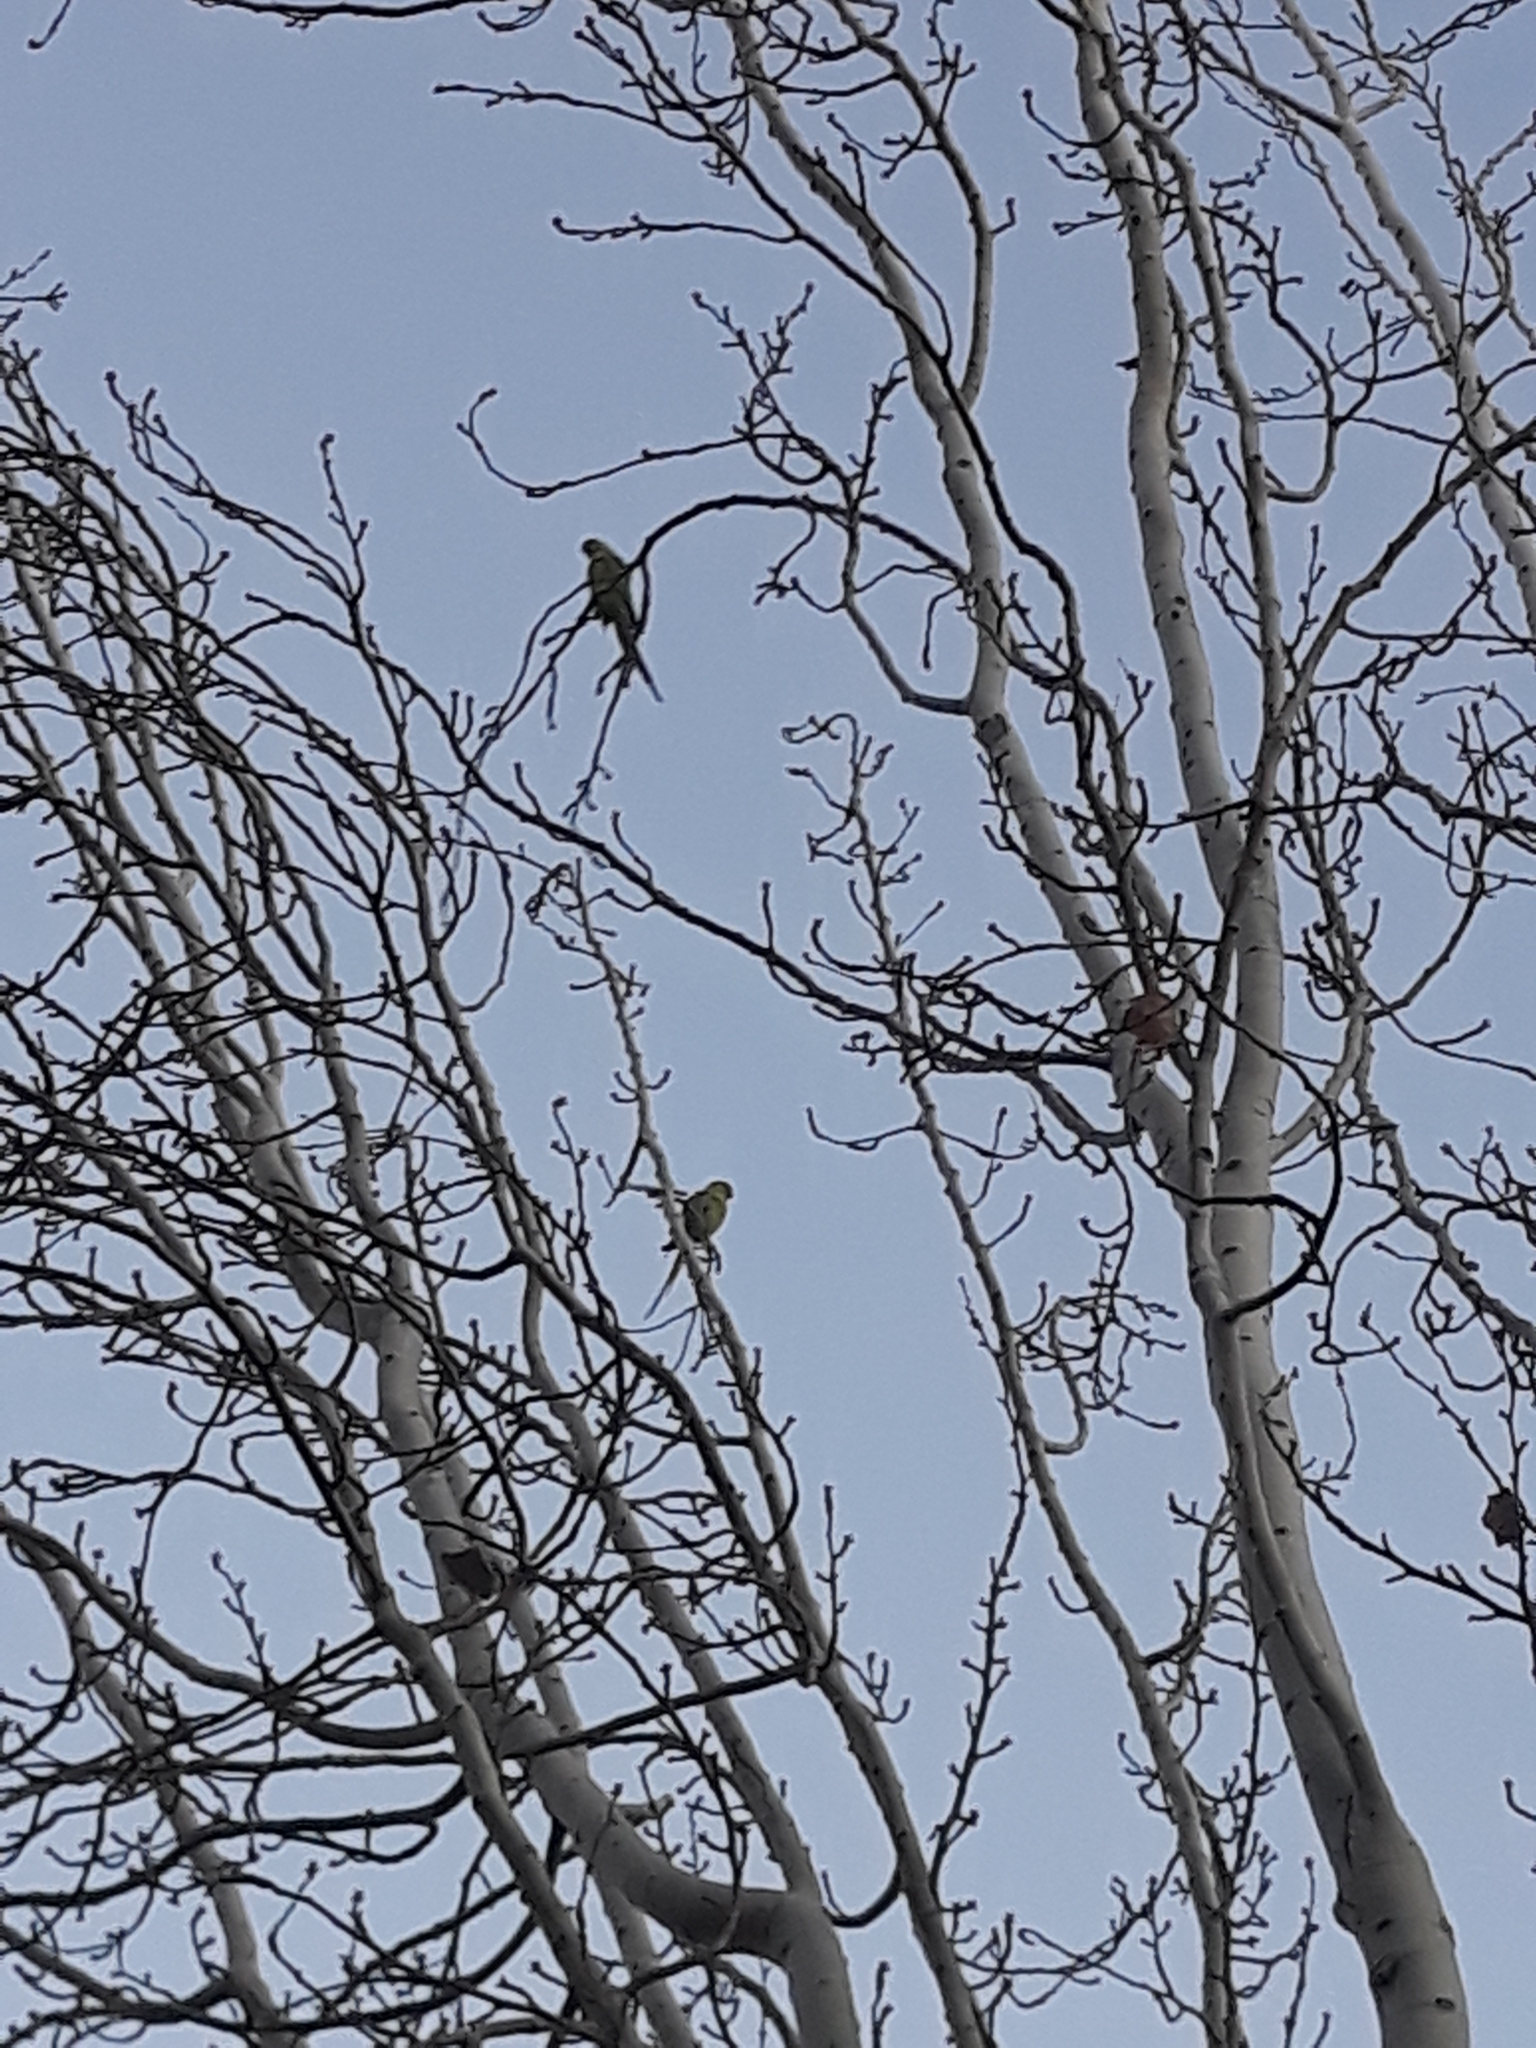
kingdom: Animalia
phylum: Chordata
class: Aves
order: Psittaciformes
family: Psittacidae
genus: Psittacula
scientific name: Psittacula krameri
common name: Rose-ringed parakeet
